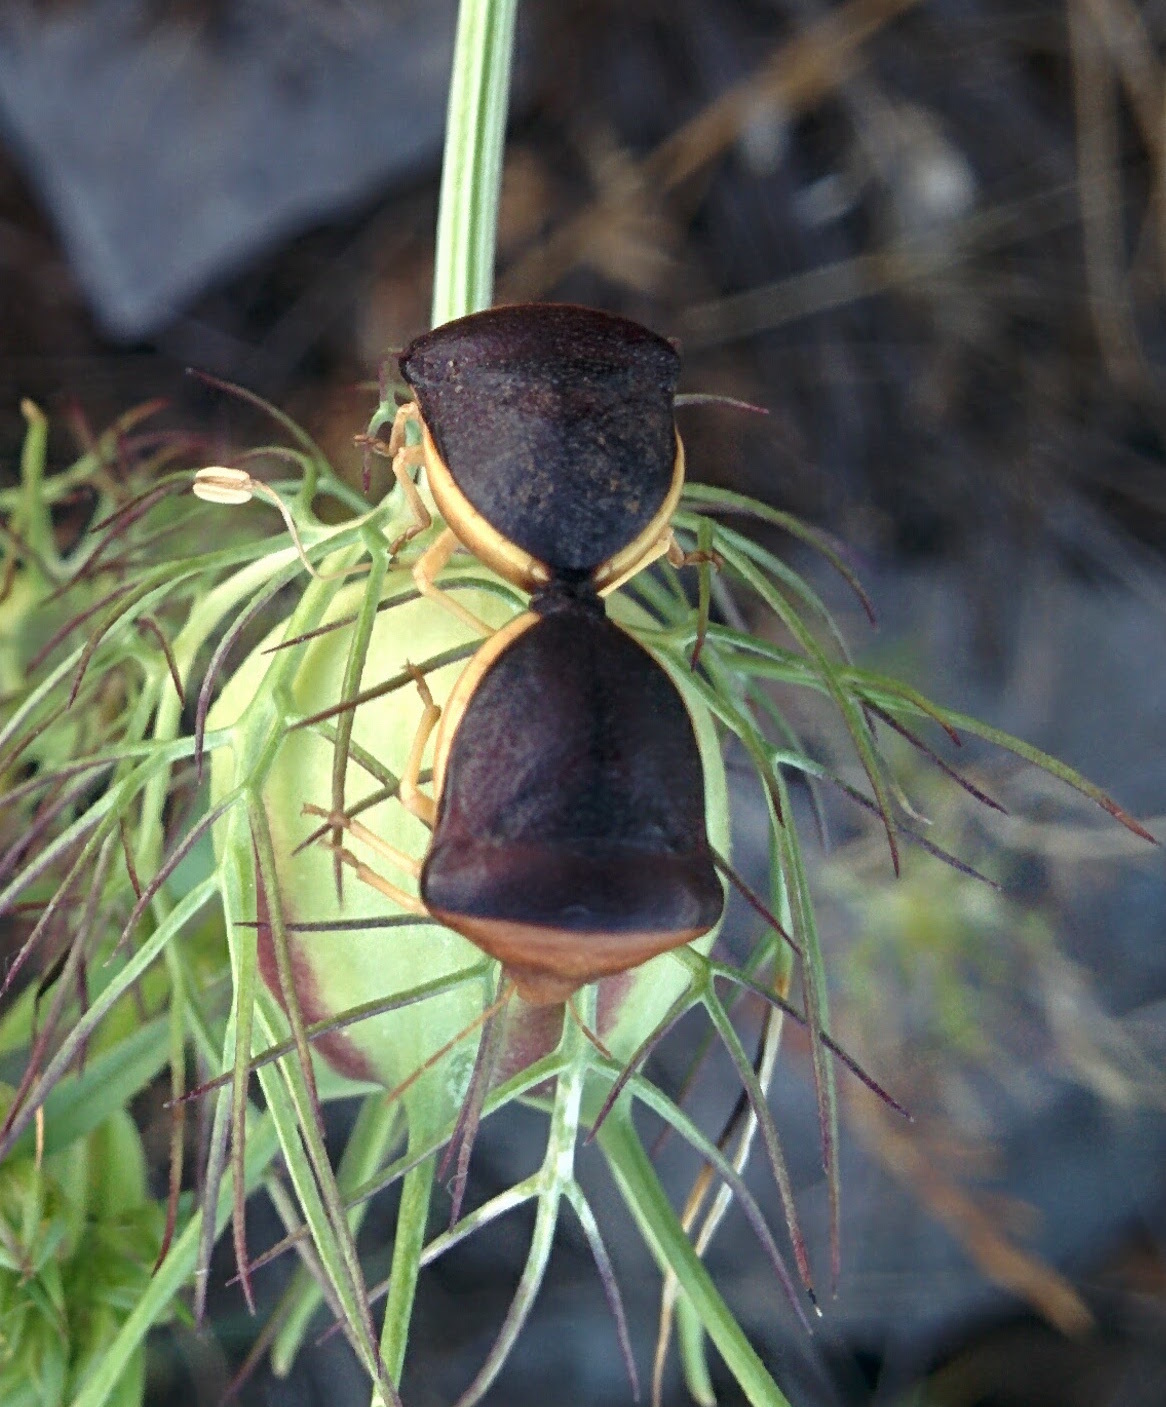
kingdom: Animalia
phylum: Arthropoda
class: Insecta
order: Hemiptera
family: Pentatomidae
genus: Ventocoris
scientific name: Ventocoris rusticus
